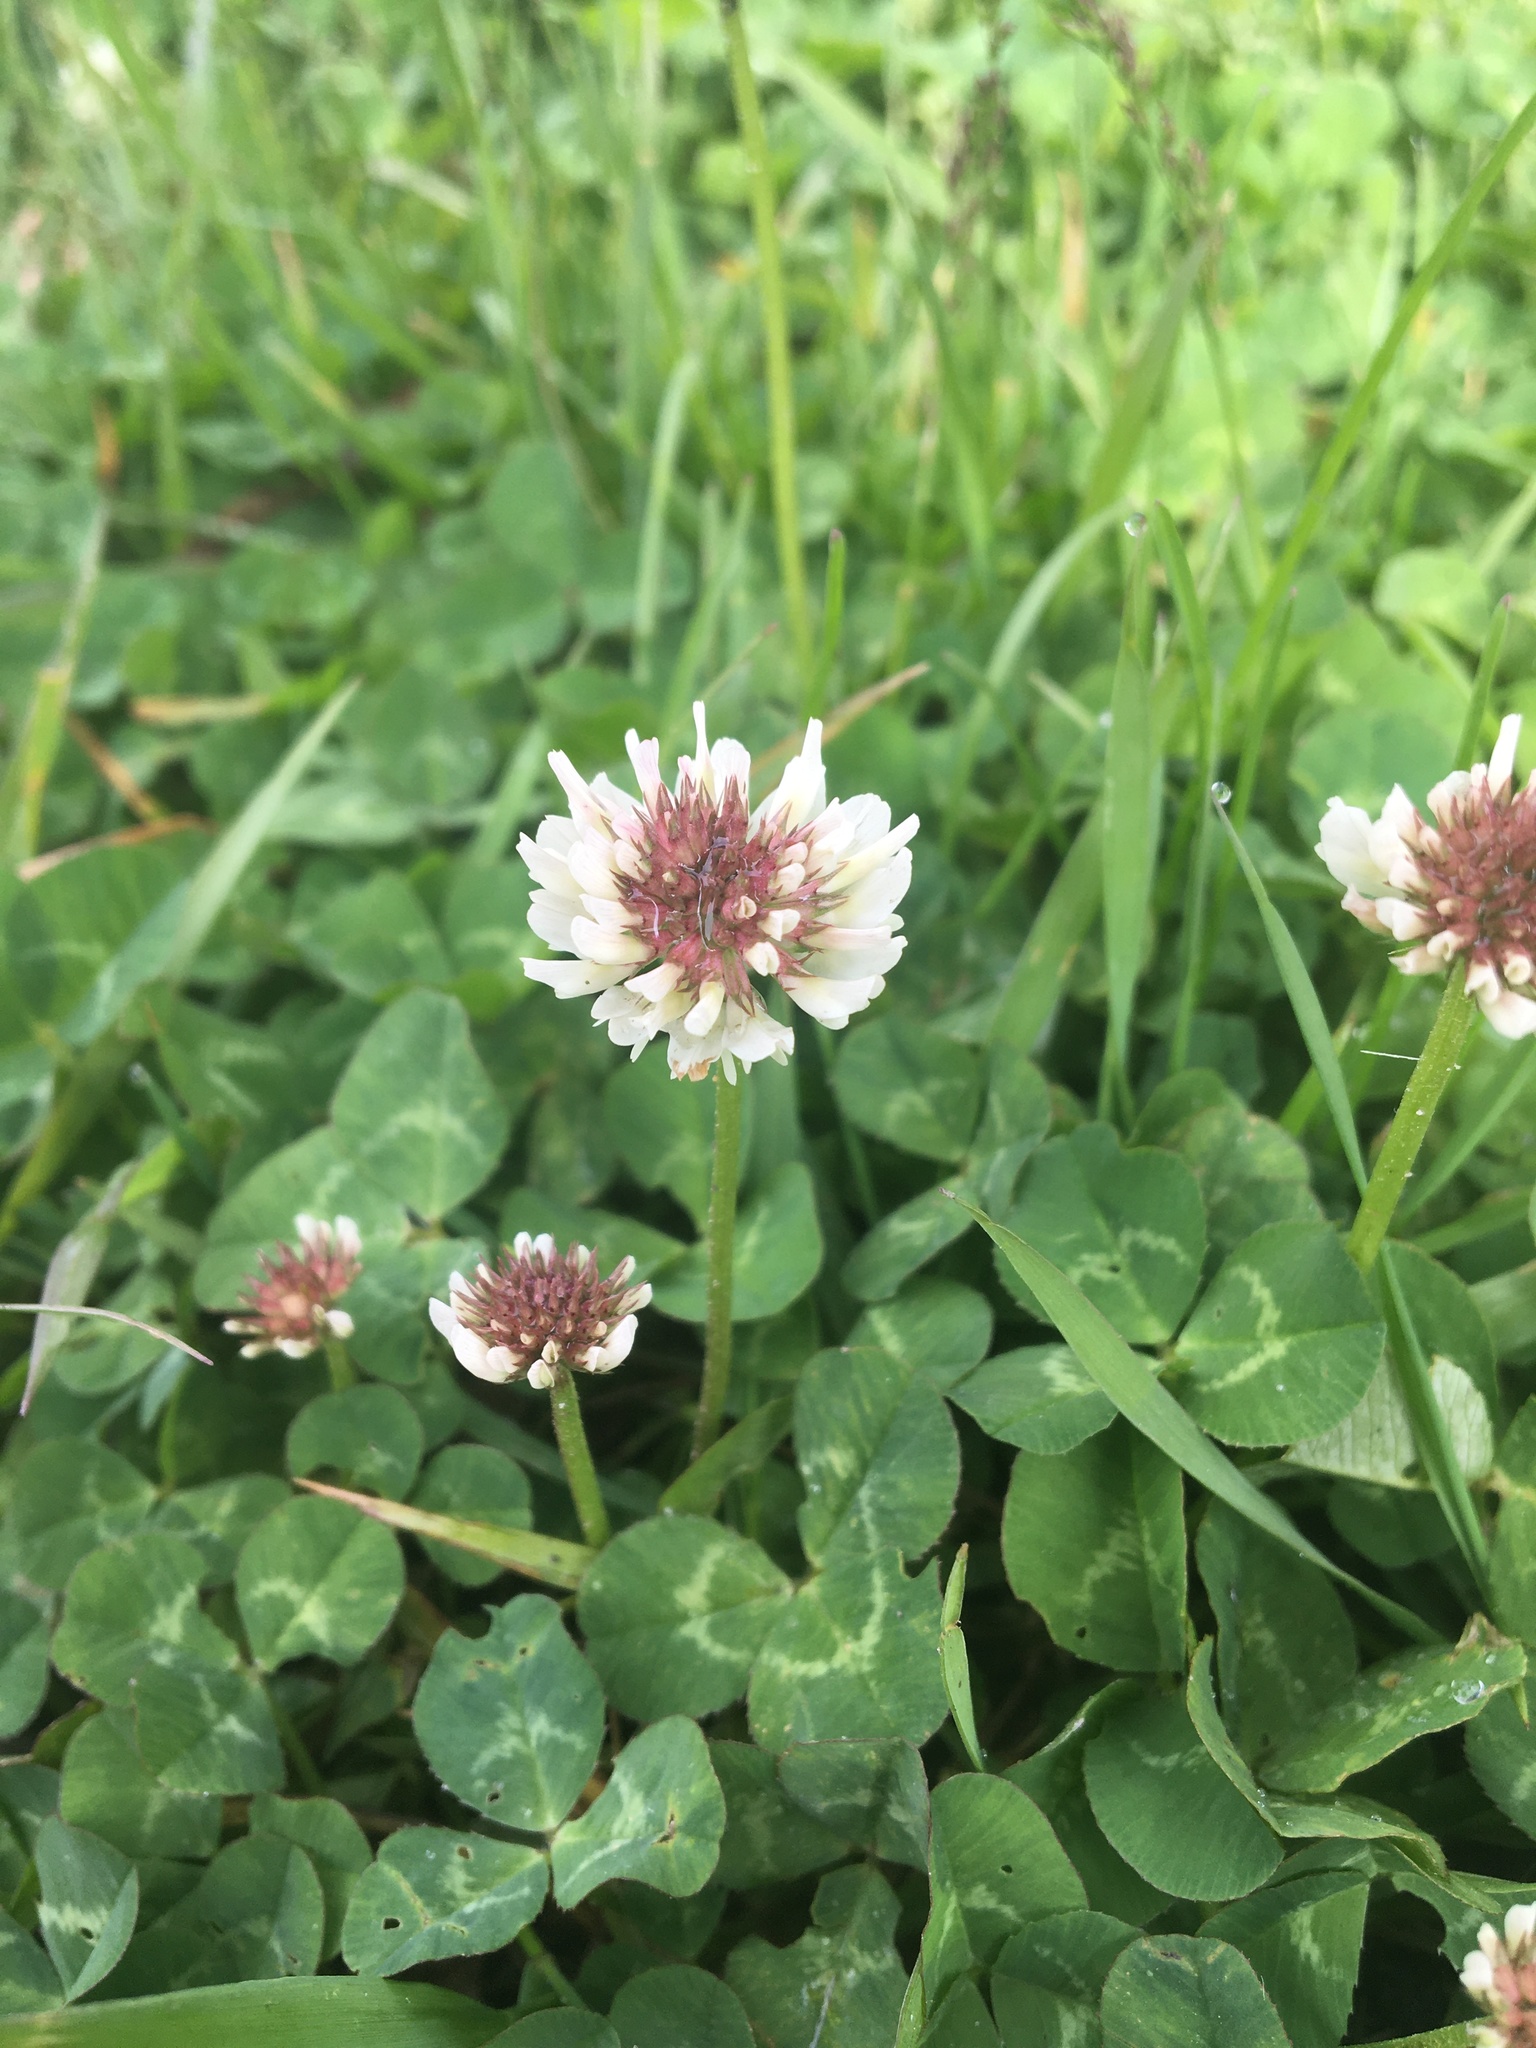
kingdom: Plantae
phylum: Tracheophyta
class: Magnoliopsida
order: Fabales
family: Fabaceae
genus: Trifolium
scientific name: Trifolium repens
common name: White clover
